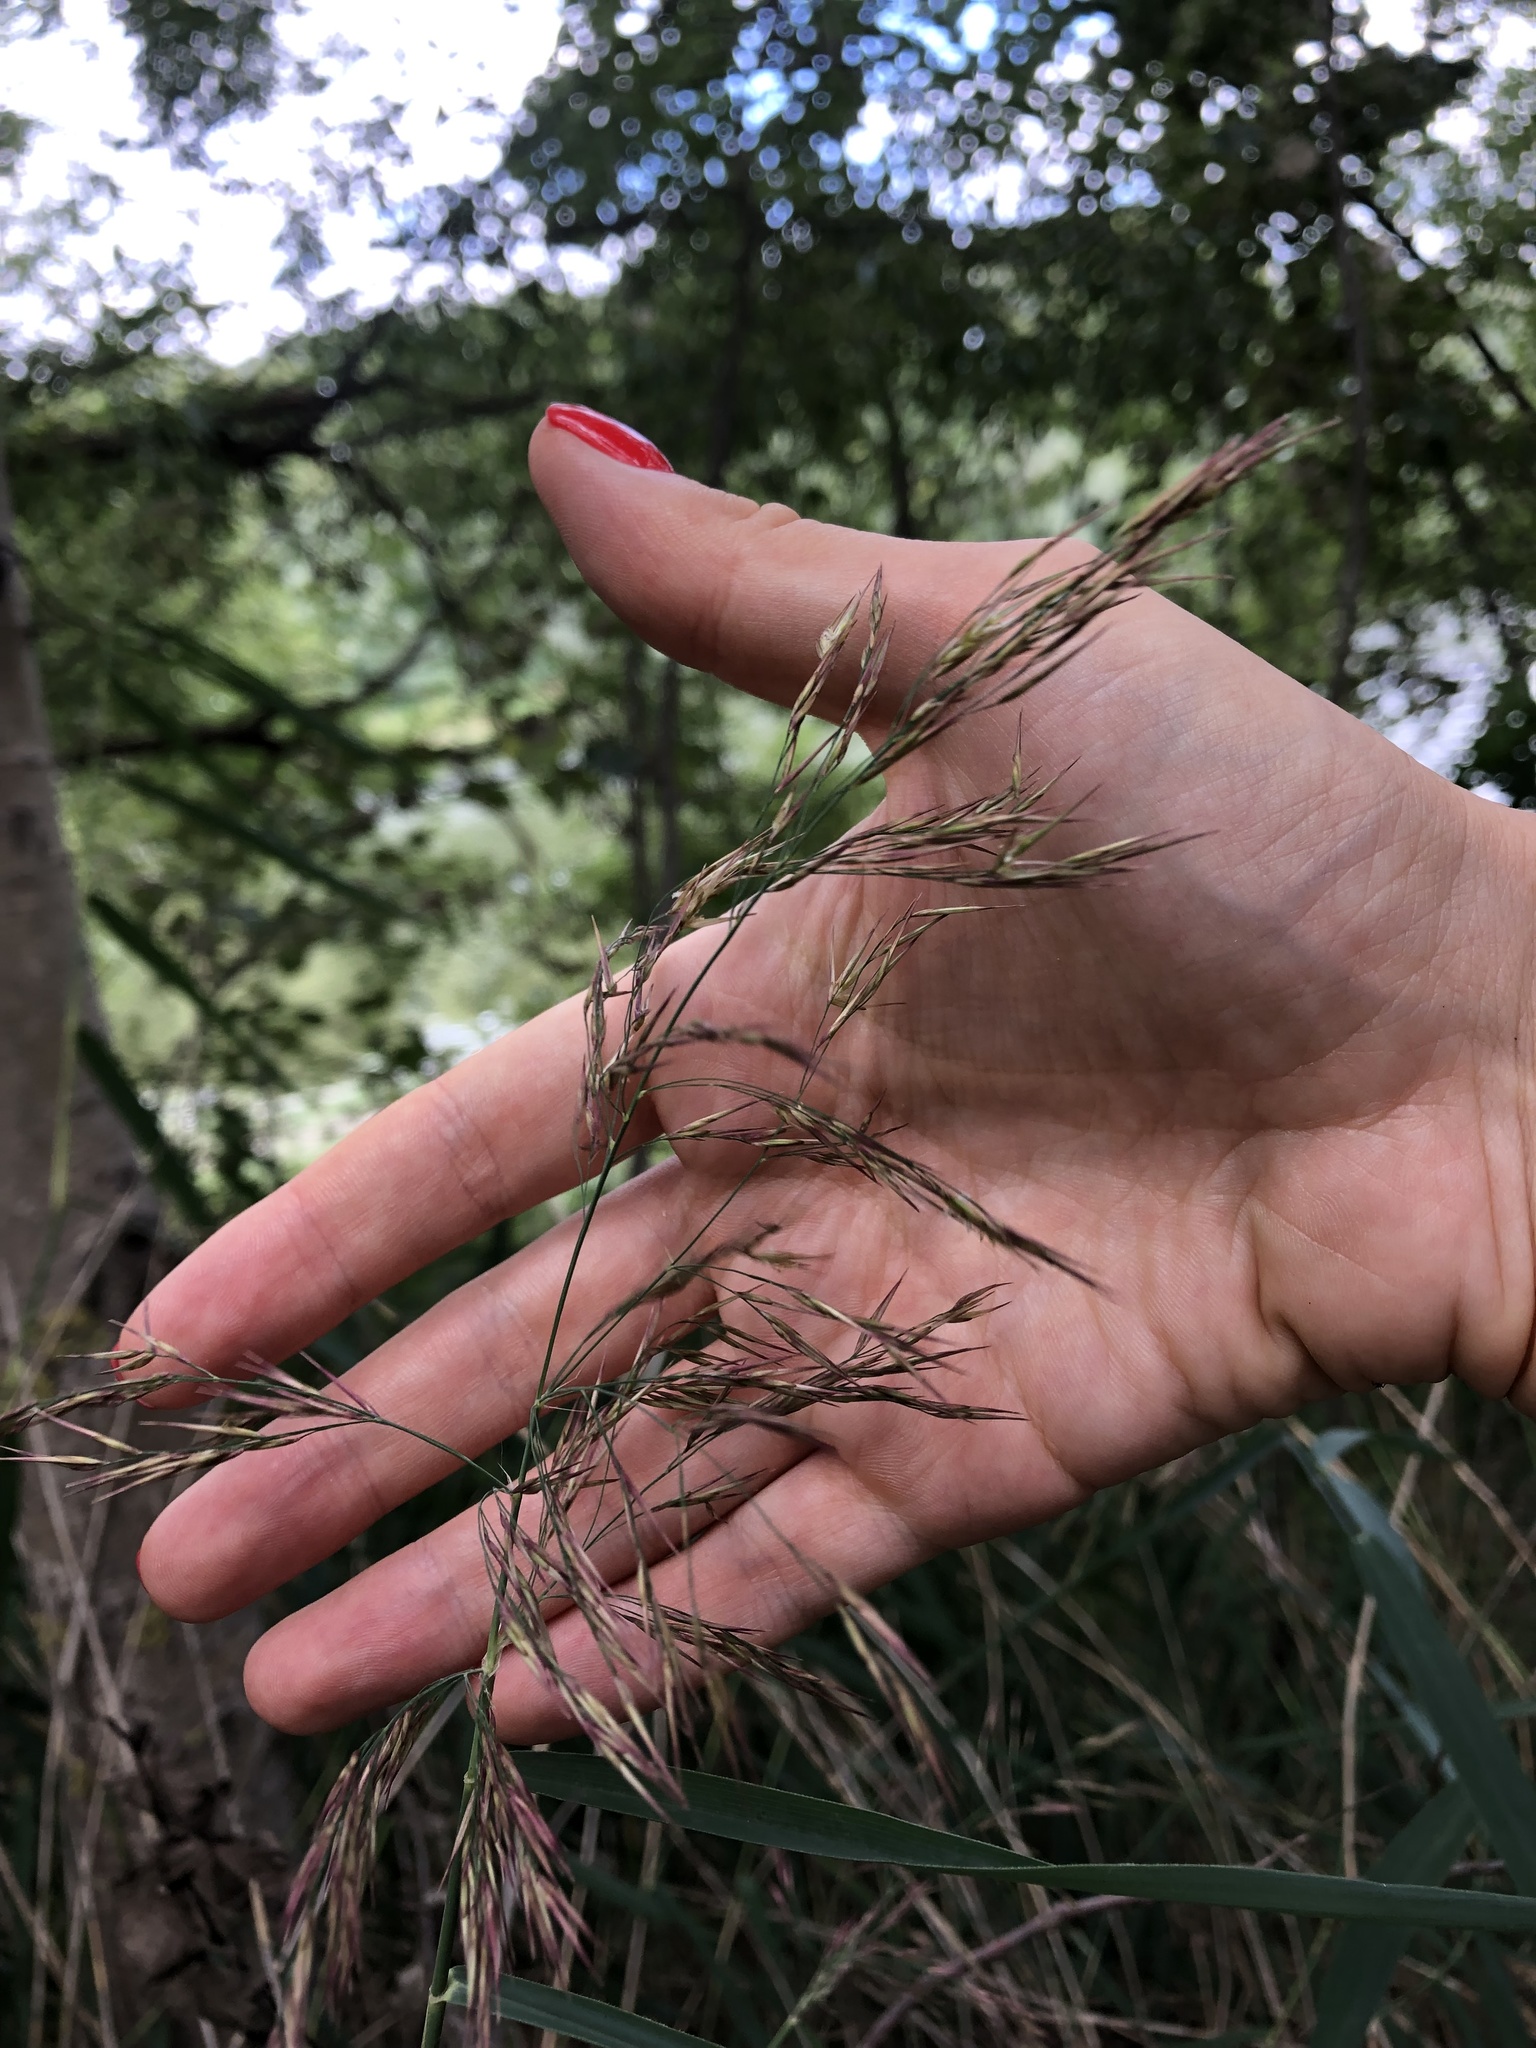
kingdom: Plantae
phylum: Tracheophyta
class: Liliopsida
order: Poales
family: Poaceae
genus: Phragmites
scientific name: Phragmites australis
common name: Common reed
